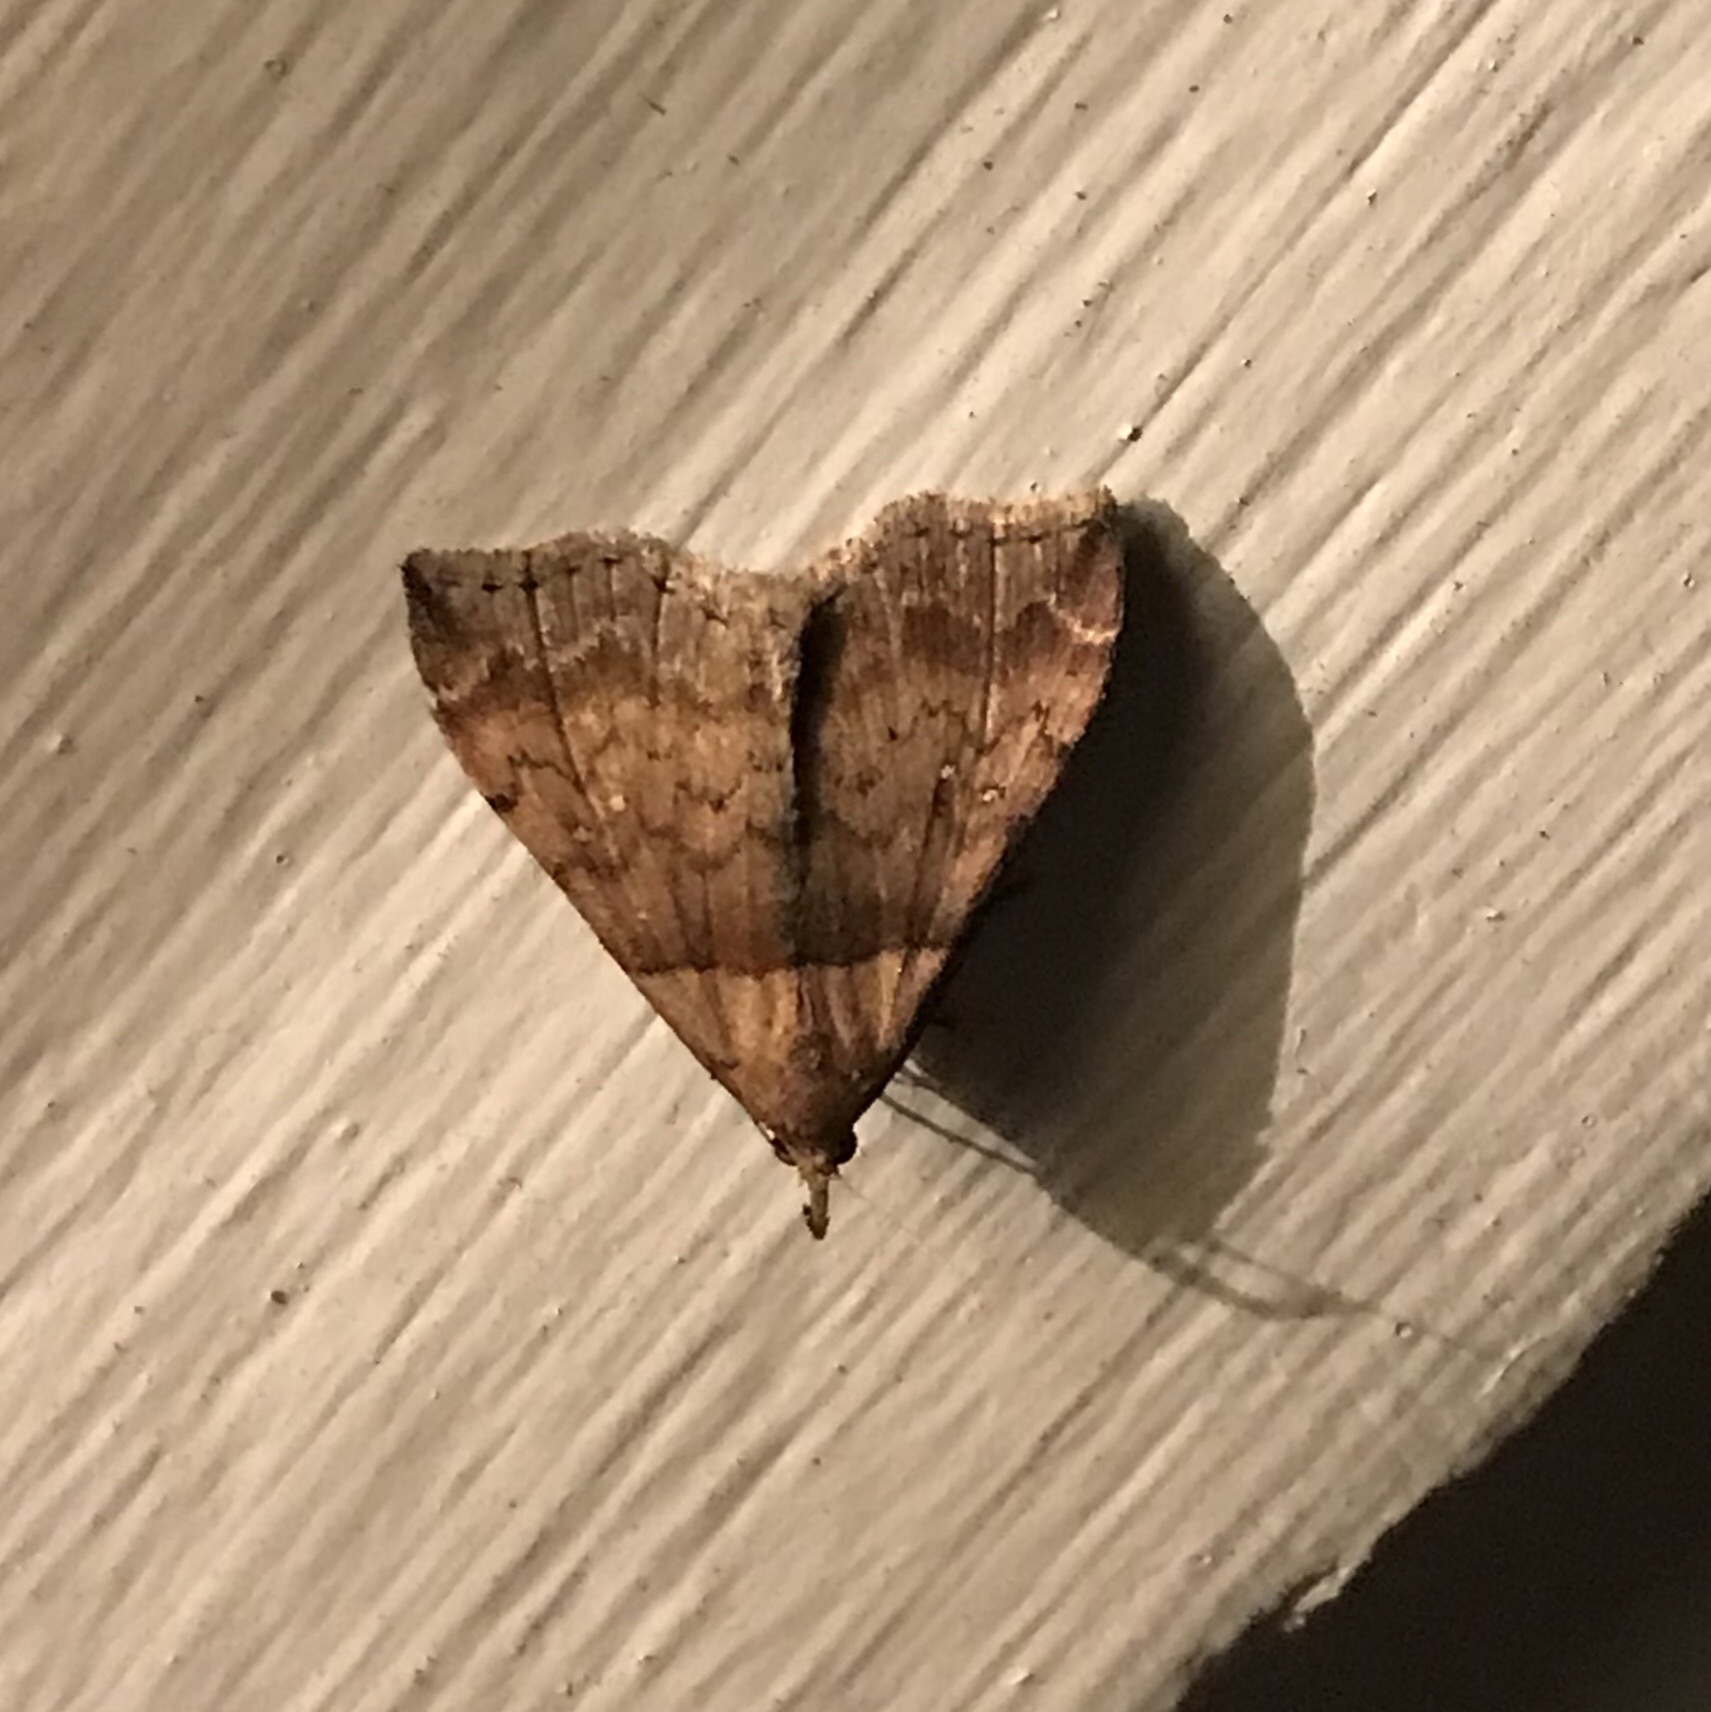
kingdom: Animalia
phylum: Arthropoda
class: Insecta
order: Lepidoptera
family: Erebidae
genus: Lascoria
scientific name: Lascoria ambigualis
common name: Ambiguous moth
